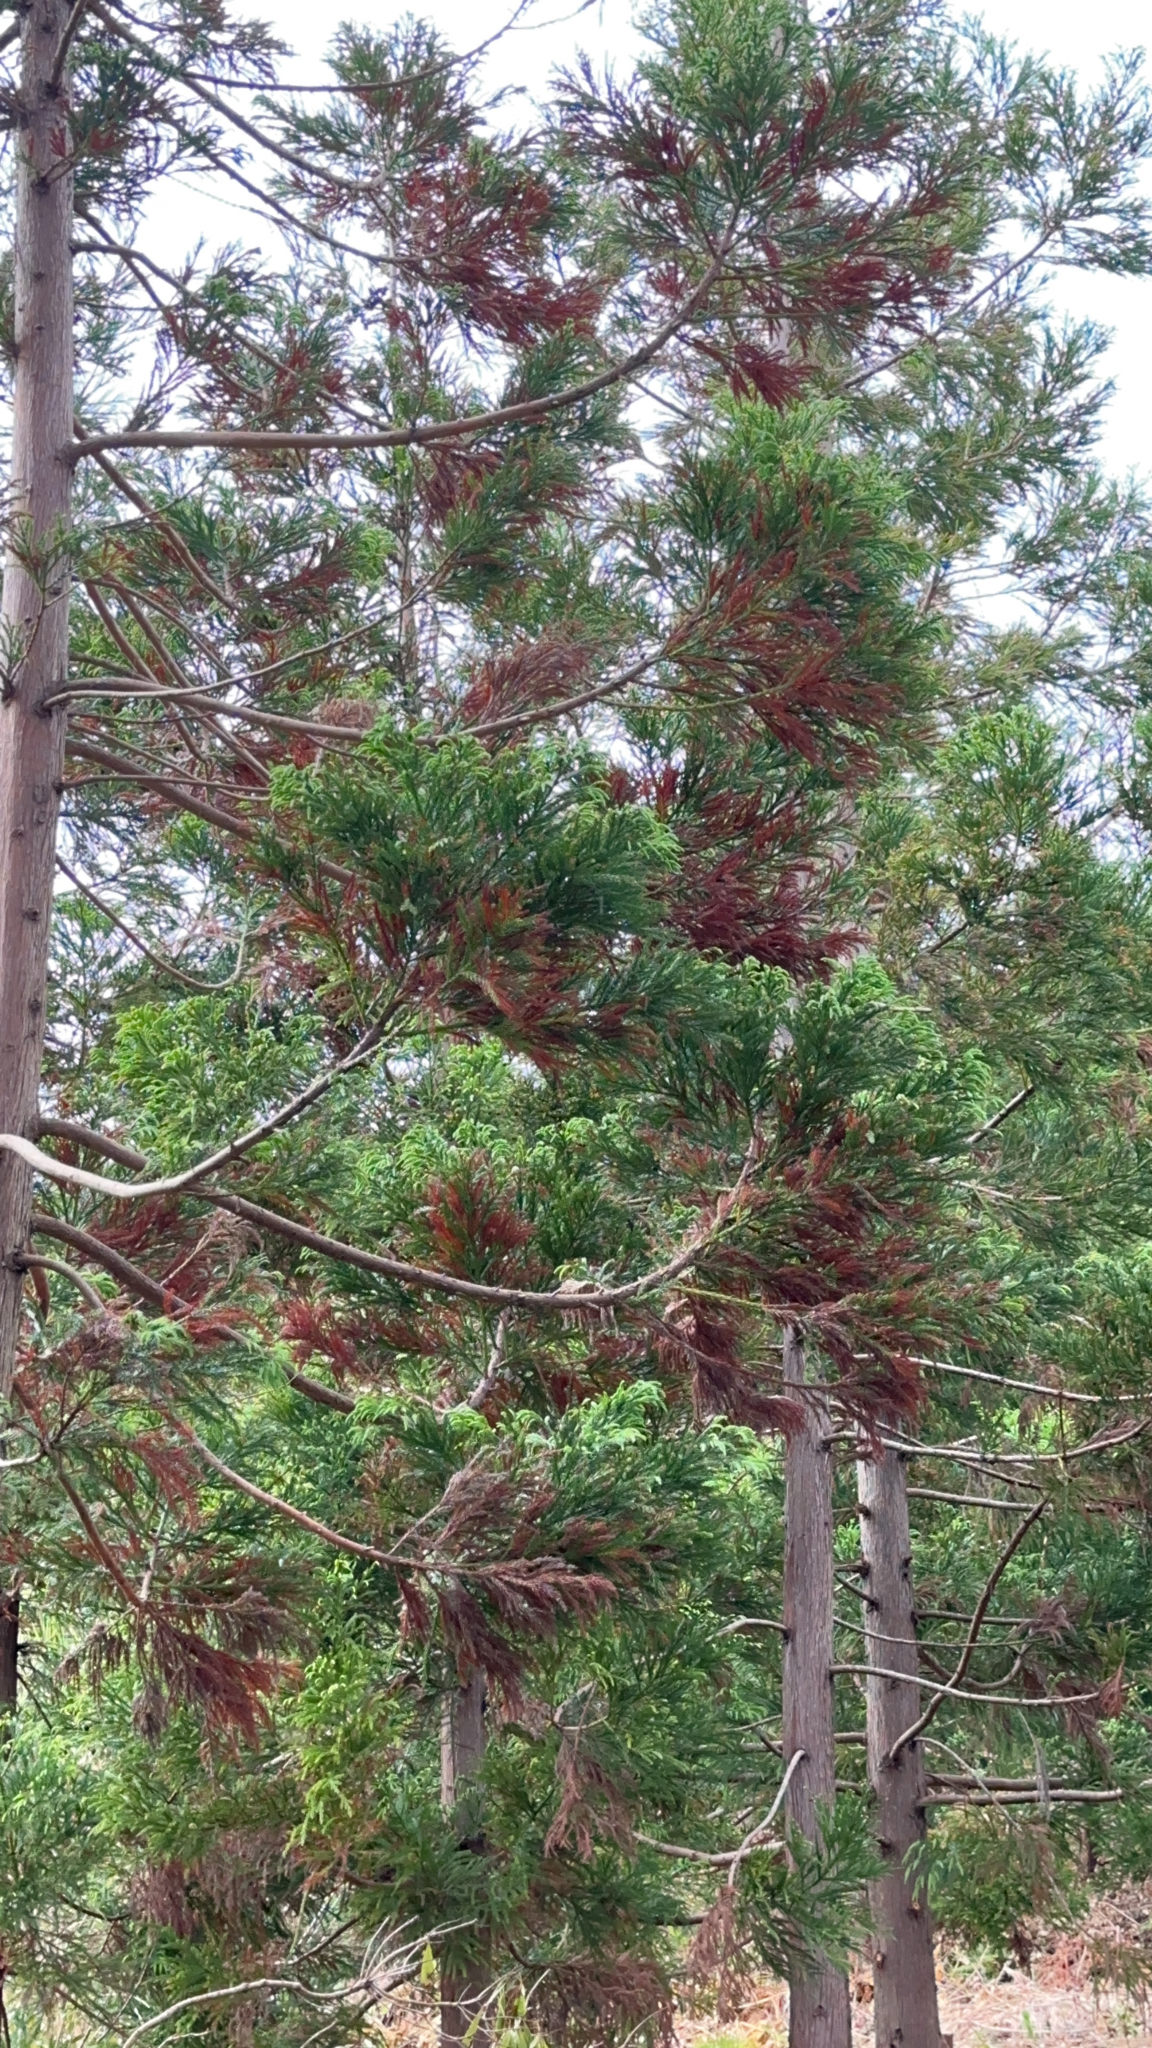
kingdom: Plantae
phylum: Tracheophyta
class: Pinopsida
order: Pinales
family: Cupressaceae
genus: Cryptomeria
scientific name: Cryptomeria japonica
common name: Japanese cedar
